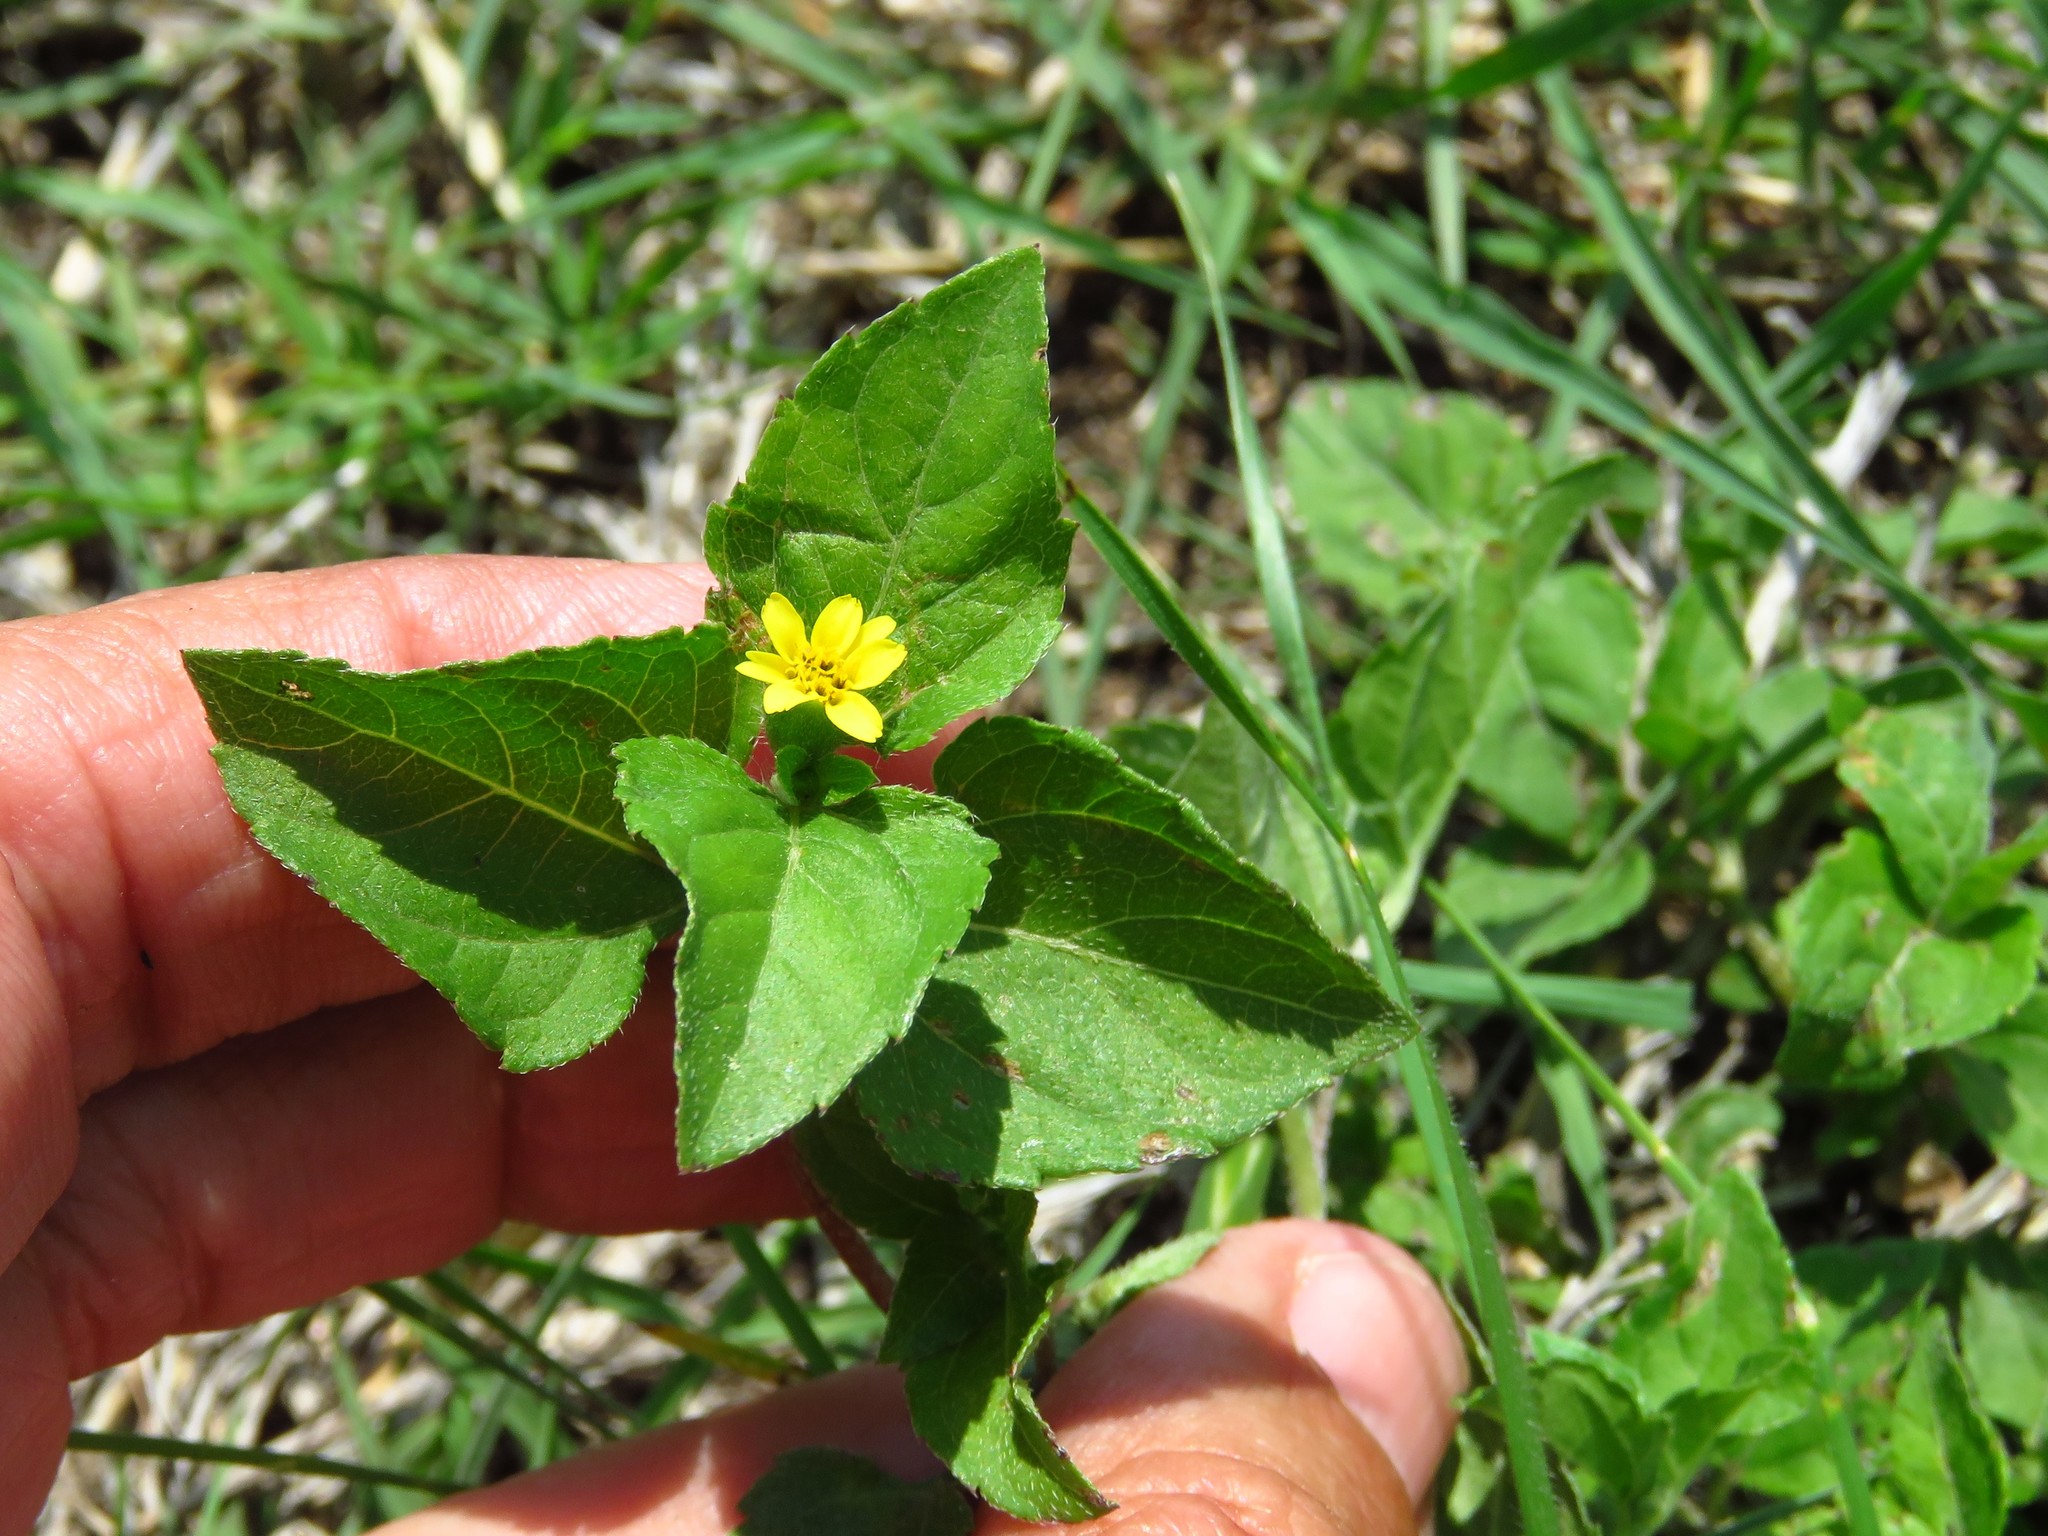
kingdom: Plantae
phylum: Tracheophyta
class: Magnoliopsida
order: Asterales
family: Asteraceae
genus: Calyptocarpus
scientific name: Calyptocarpus vialis
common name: Straggler daisy
